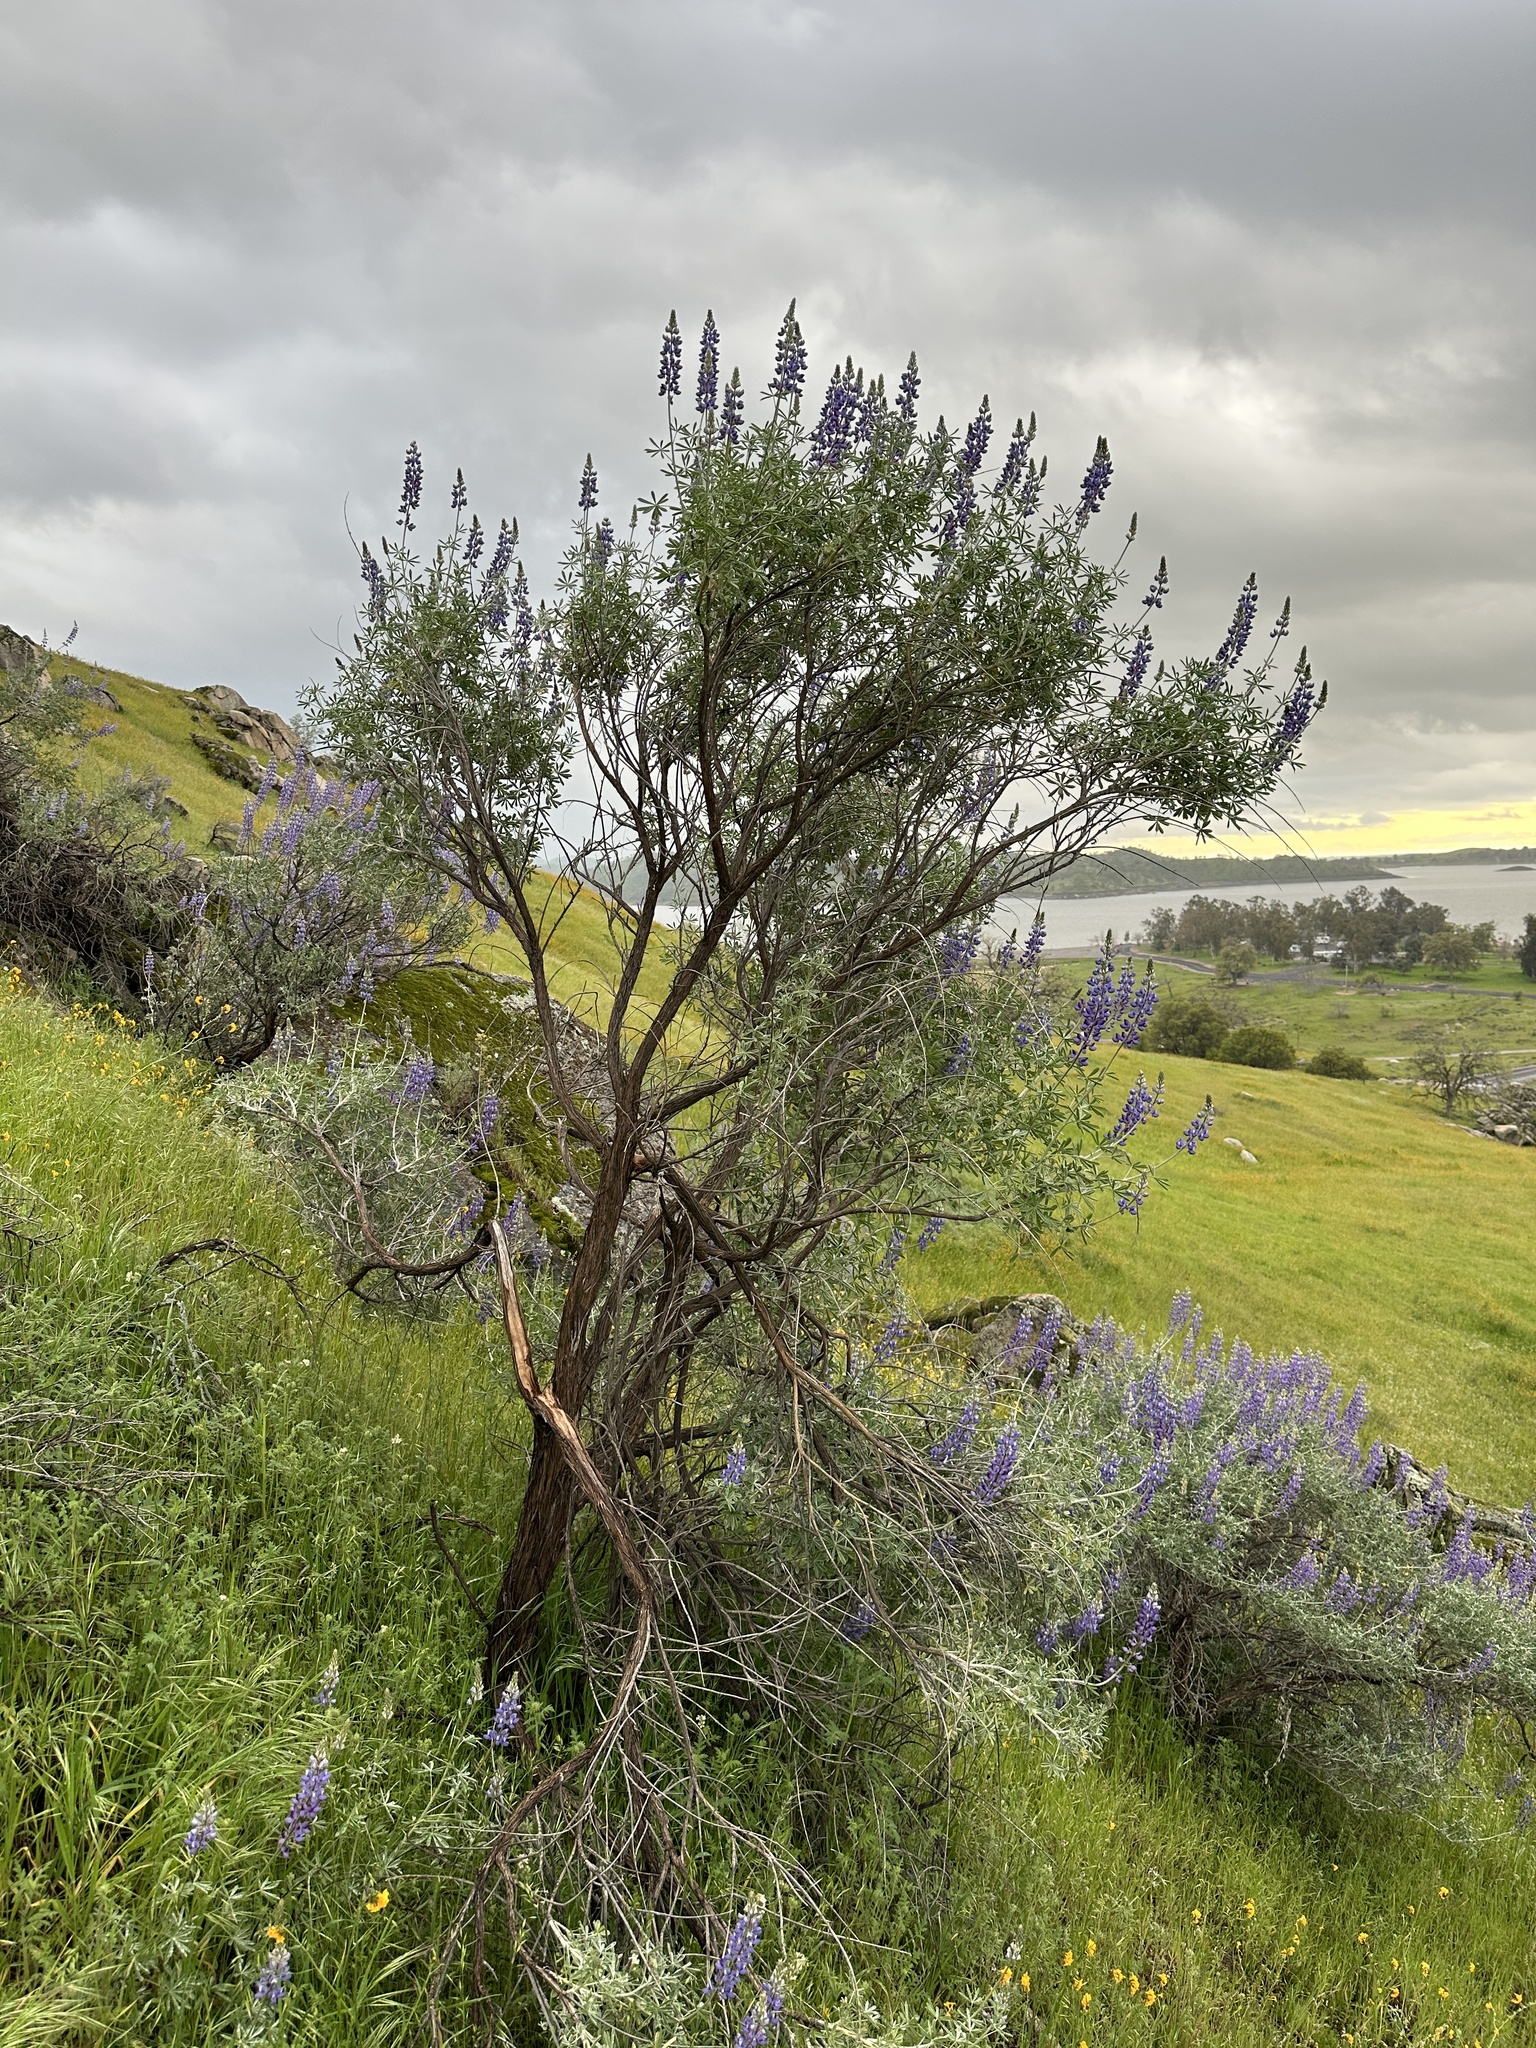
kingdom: Plantae
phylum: Tracheophyta
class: Magnoliopsida
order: Fabales
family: Fabaceae
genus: Lupinus
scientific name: Lupinus albifrons
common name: Foothill lupine
